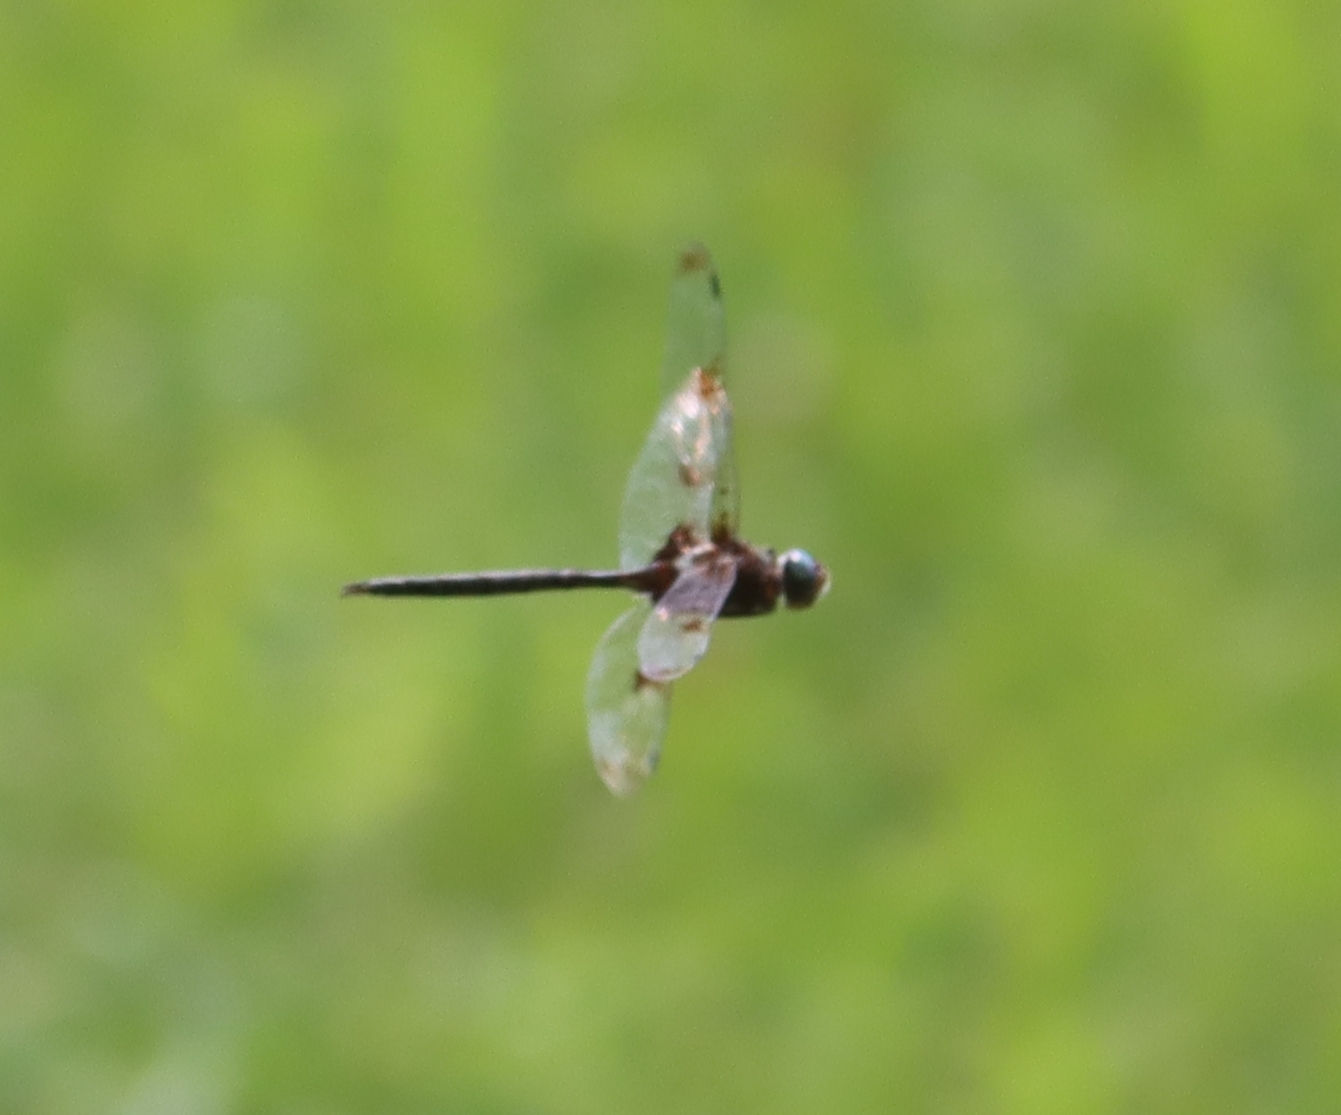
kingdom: Animalia
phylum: Arthropoda
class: Insecta
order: Odonata
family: Corduliidae
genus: Epitheca
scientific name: Epitheca princeps
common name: Prince baskettail
